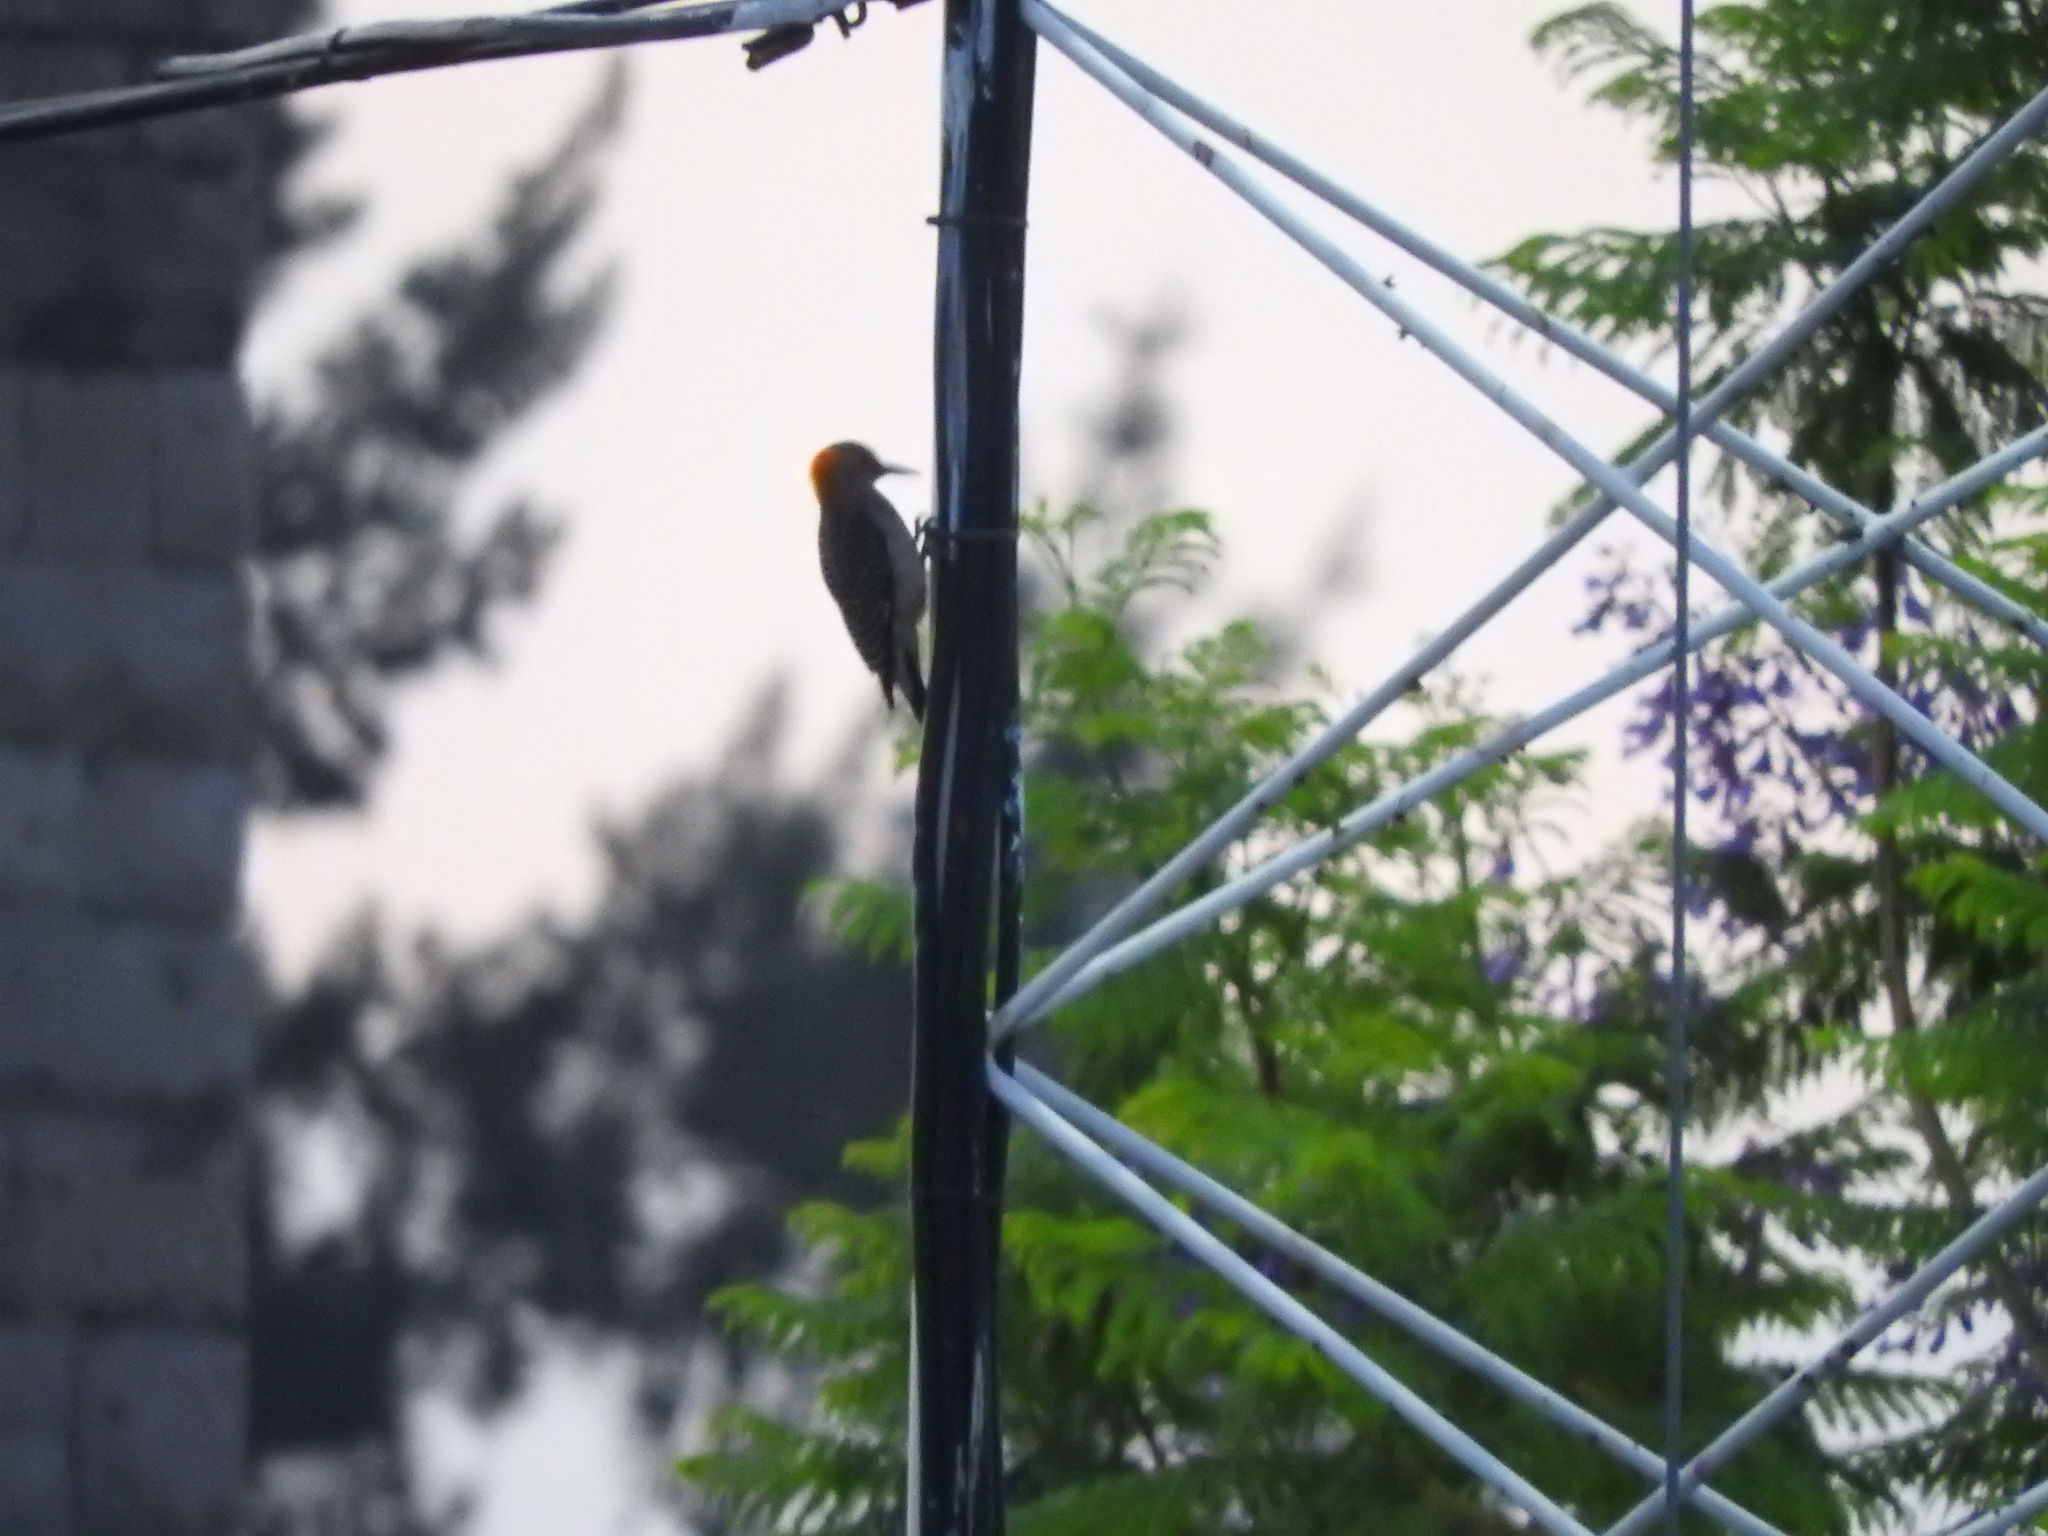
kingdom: Animalia
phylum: Chordata
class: Aves
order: Piciformes
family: Picidae
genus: Melanerpes
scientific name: Melanerpes aurifrons
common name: Golden-fronted woodpecker
